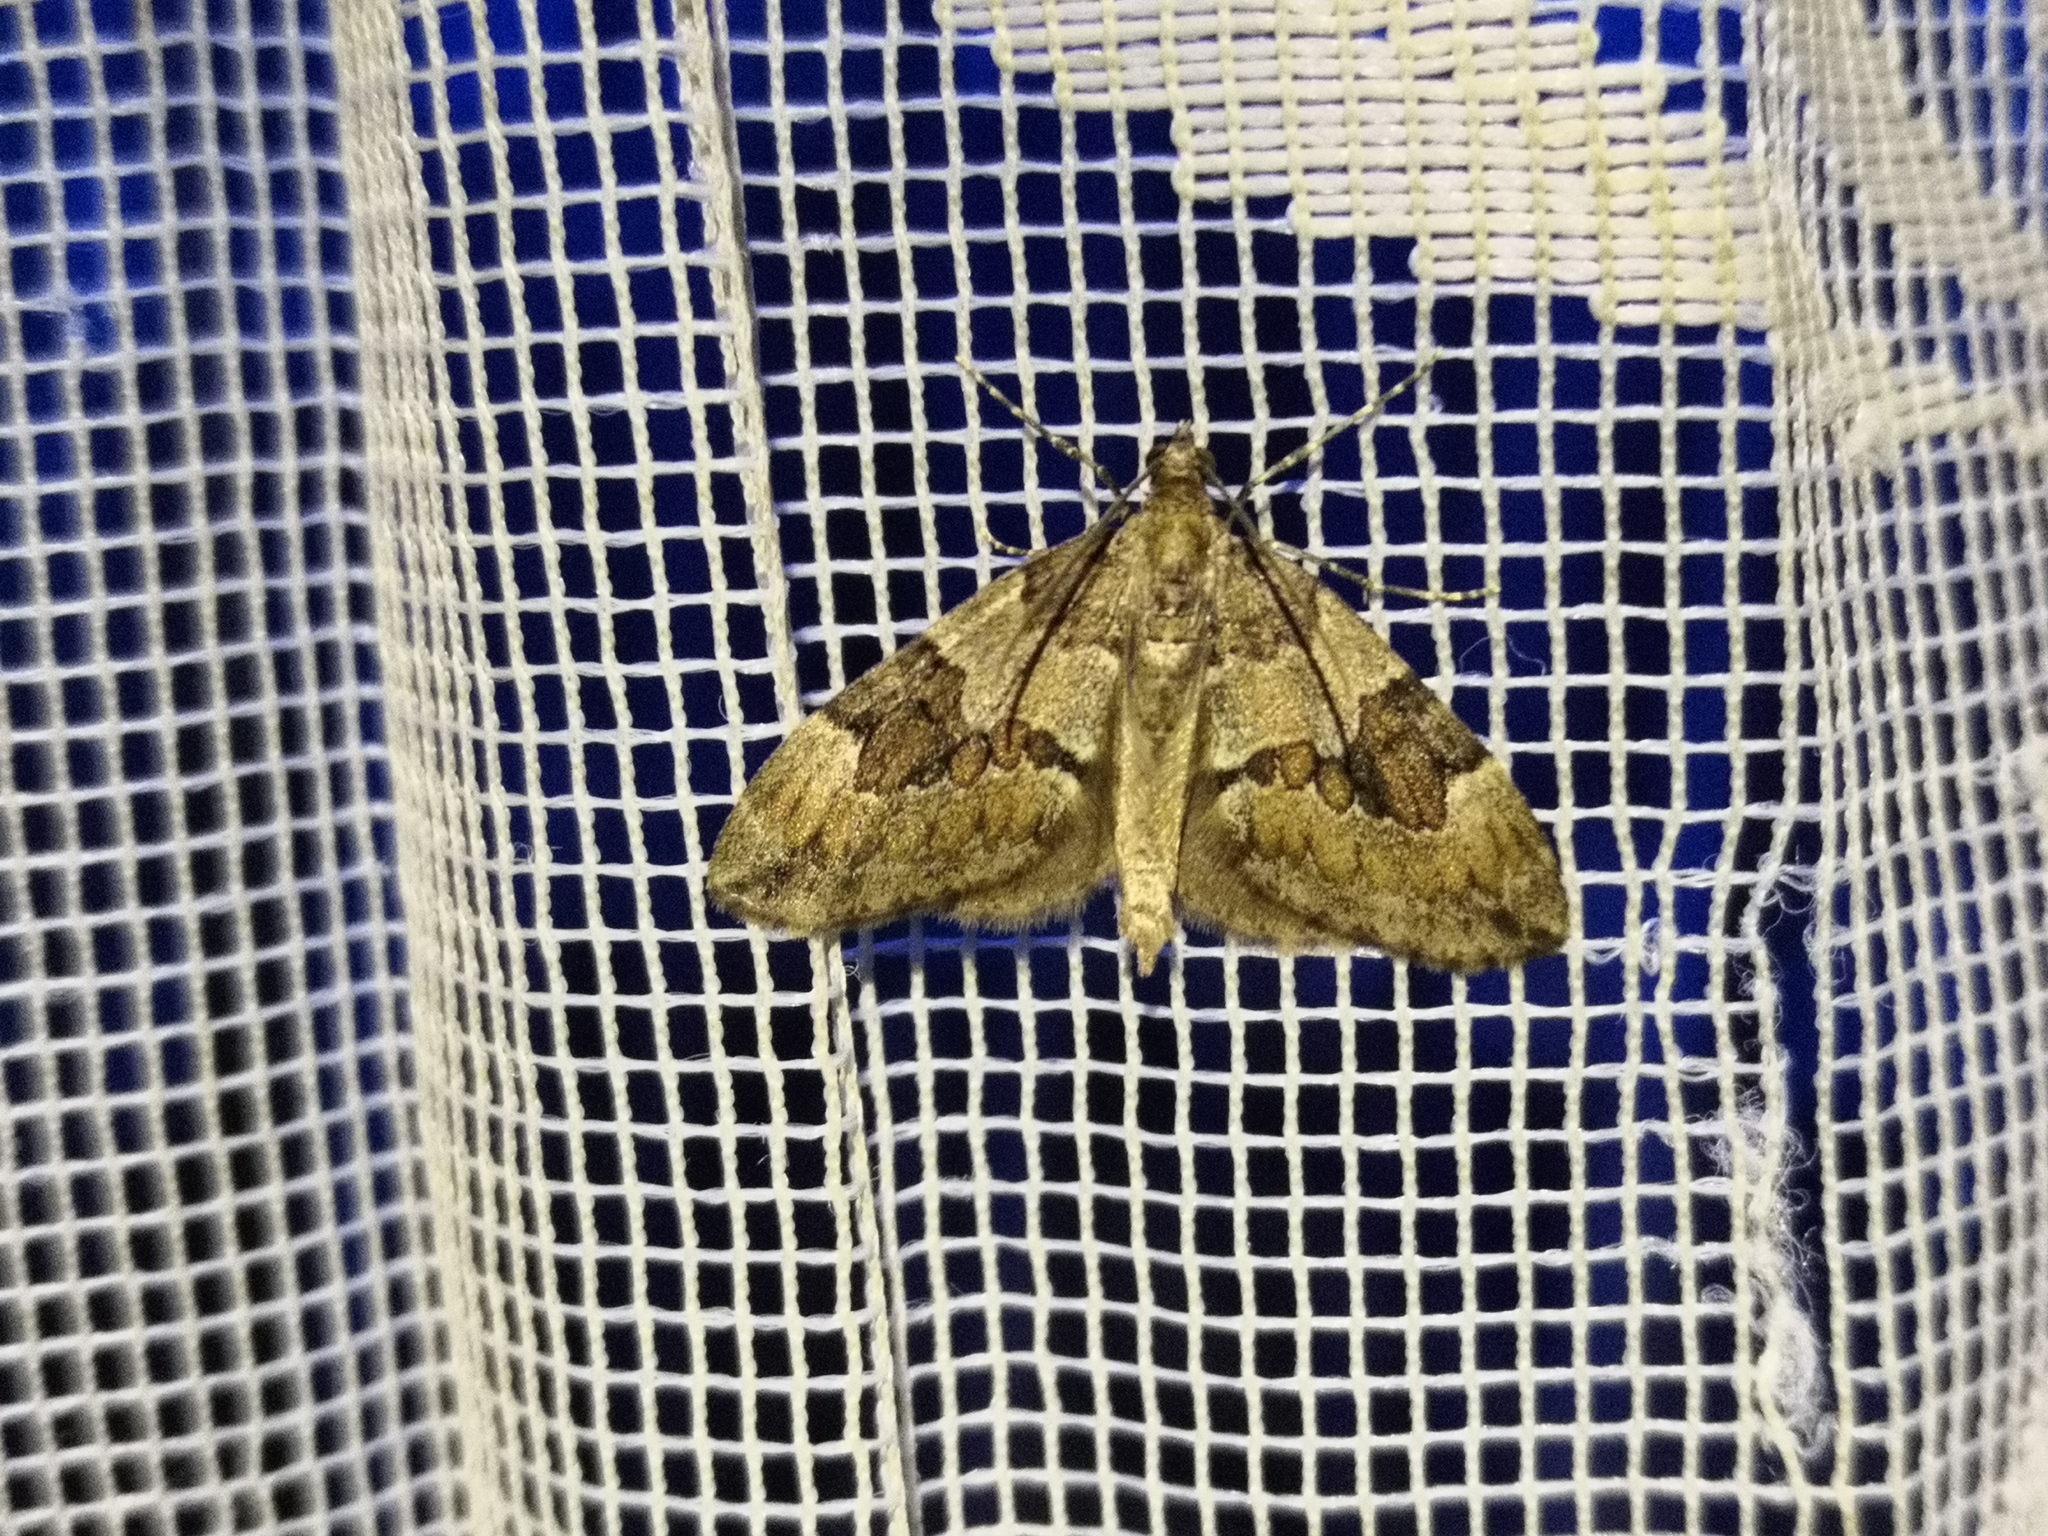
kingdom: Animalia
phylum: Arthropoda
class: Insecta
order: Lepidoptera
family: Geometridae
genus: Thera
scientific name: Thera variata
